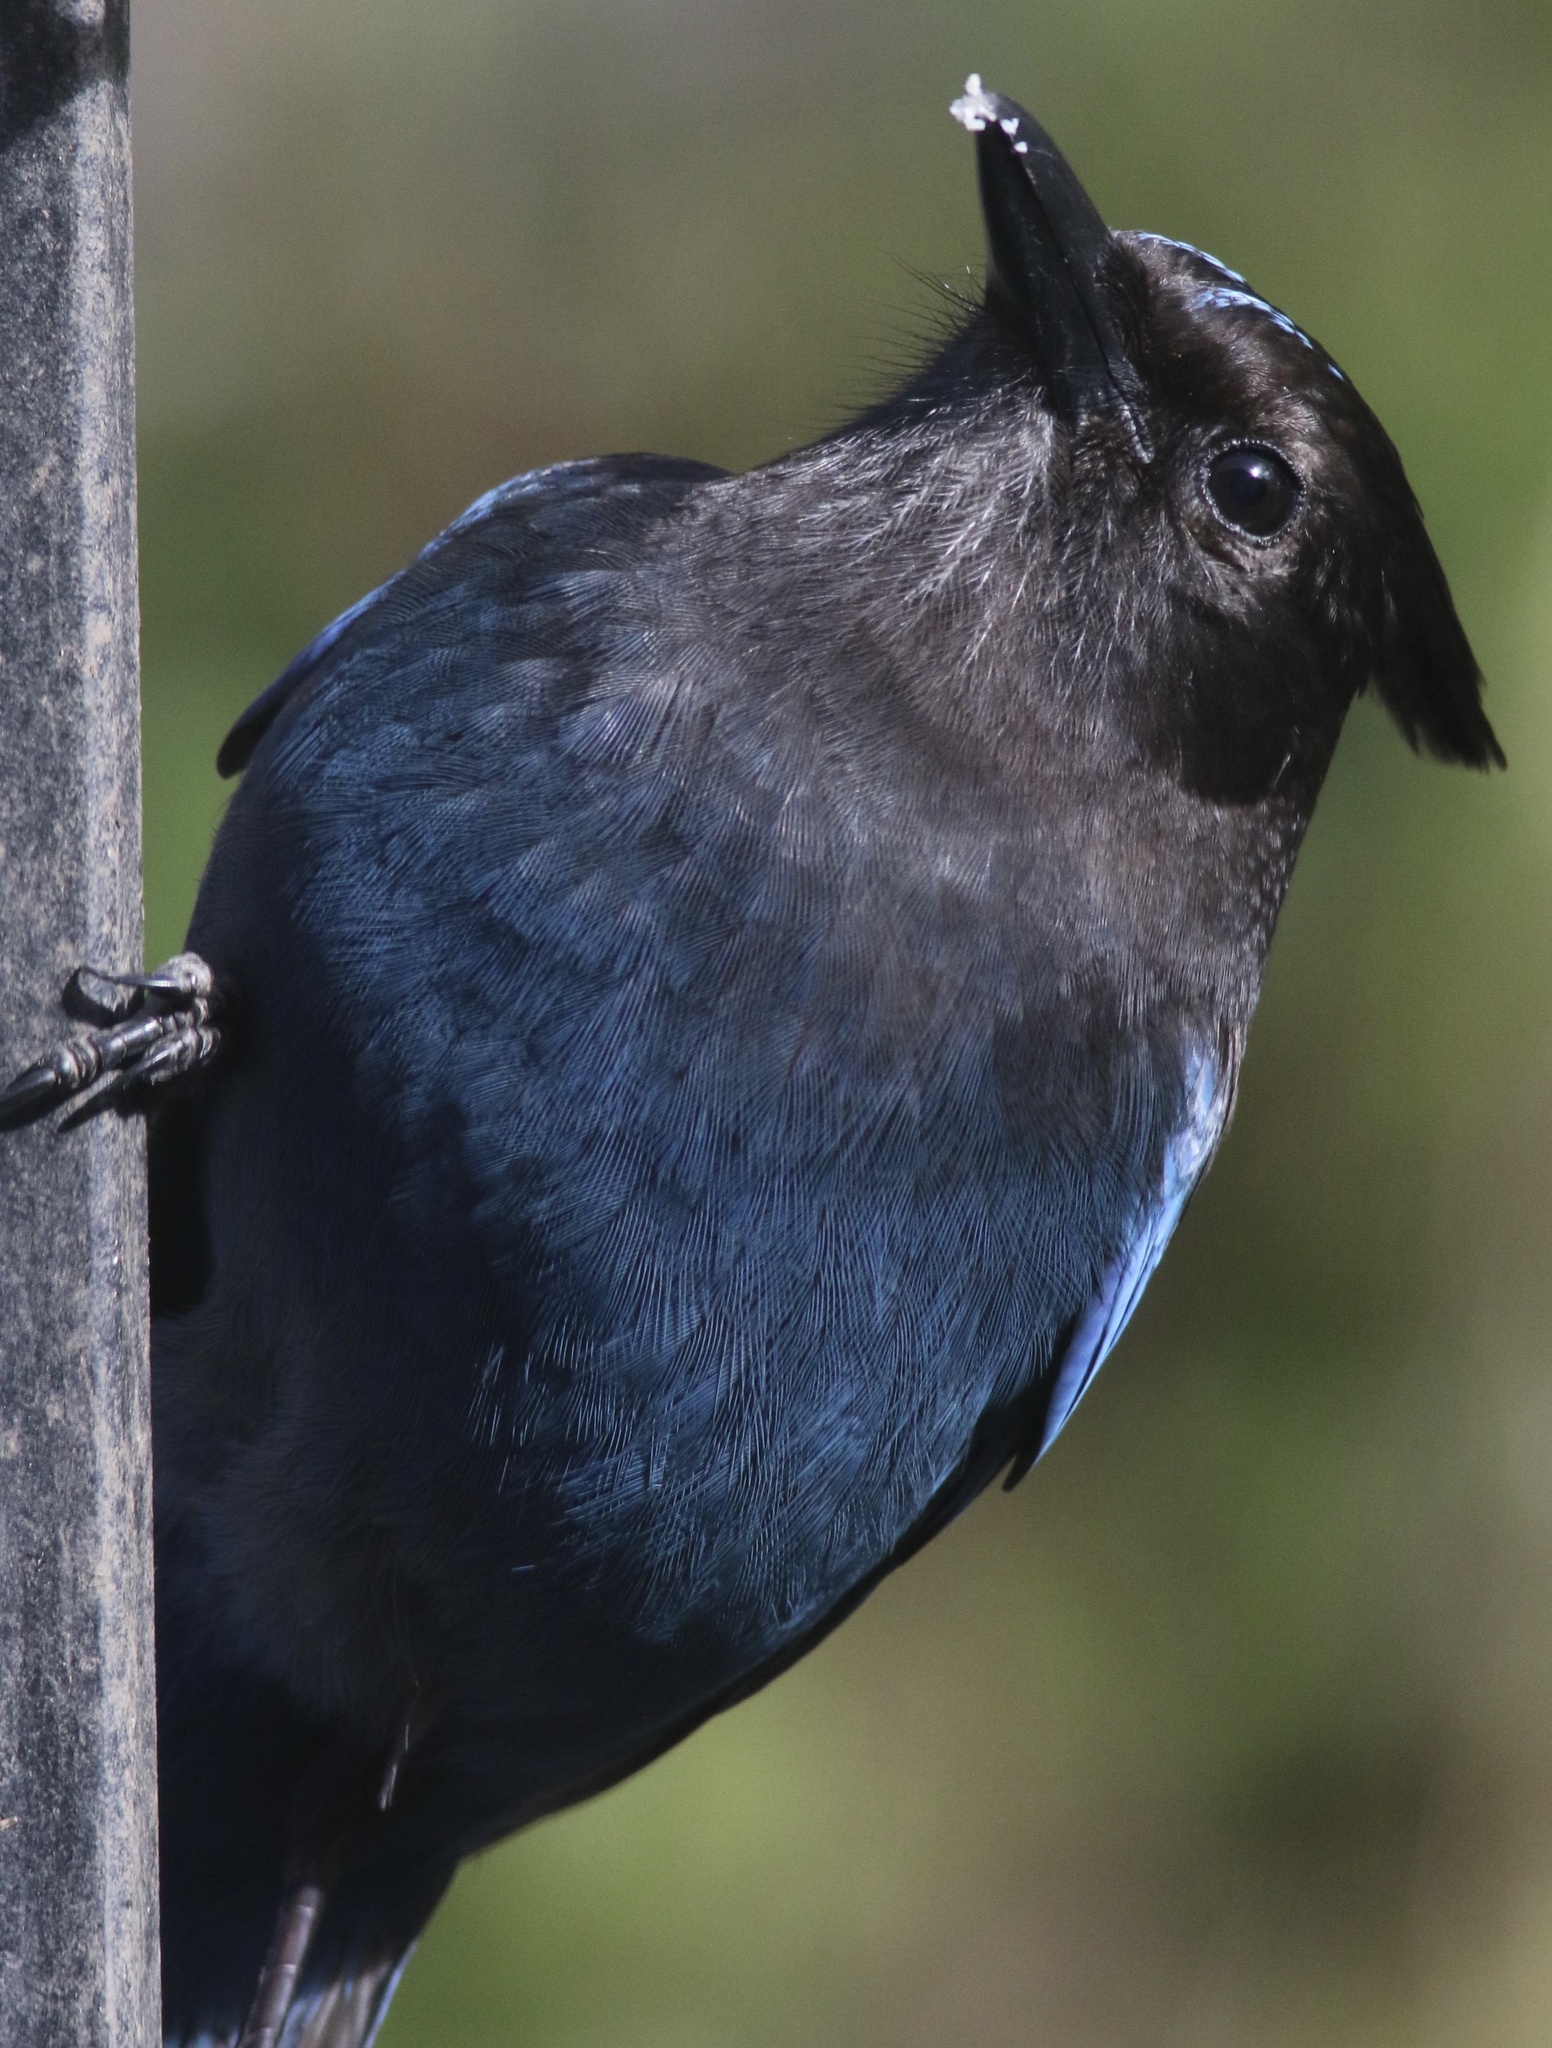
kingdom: Animalia
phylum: Chordata
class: Aves
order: Passeriformes
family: Corvidae
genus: Cyanocitta
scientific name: Cyanocitta stelleri
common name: Steller's jay
